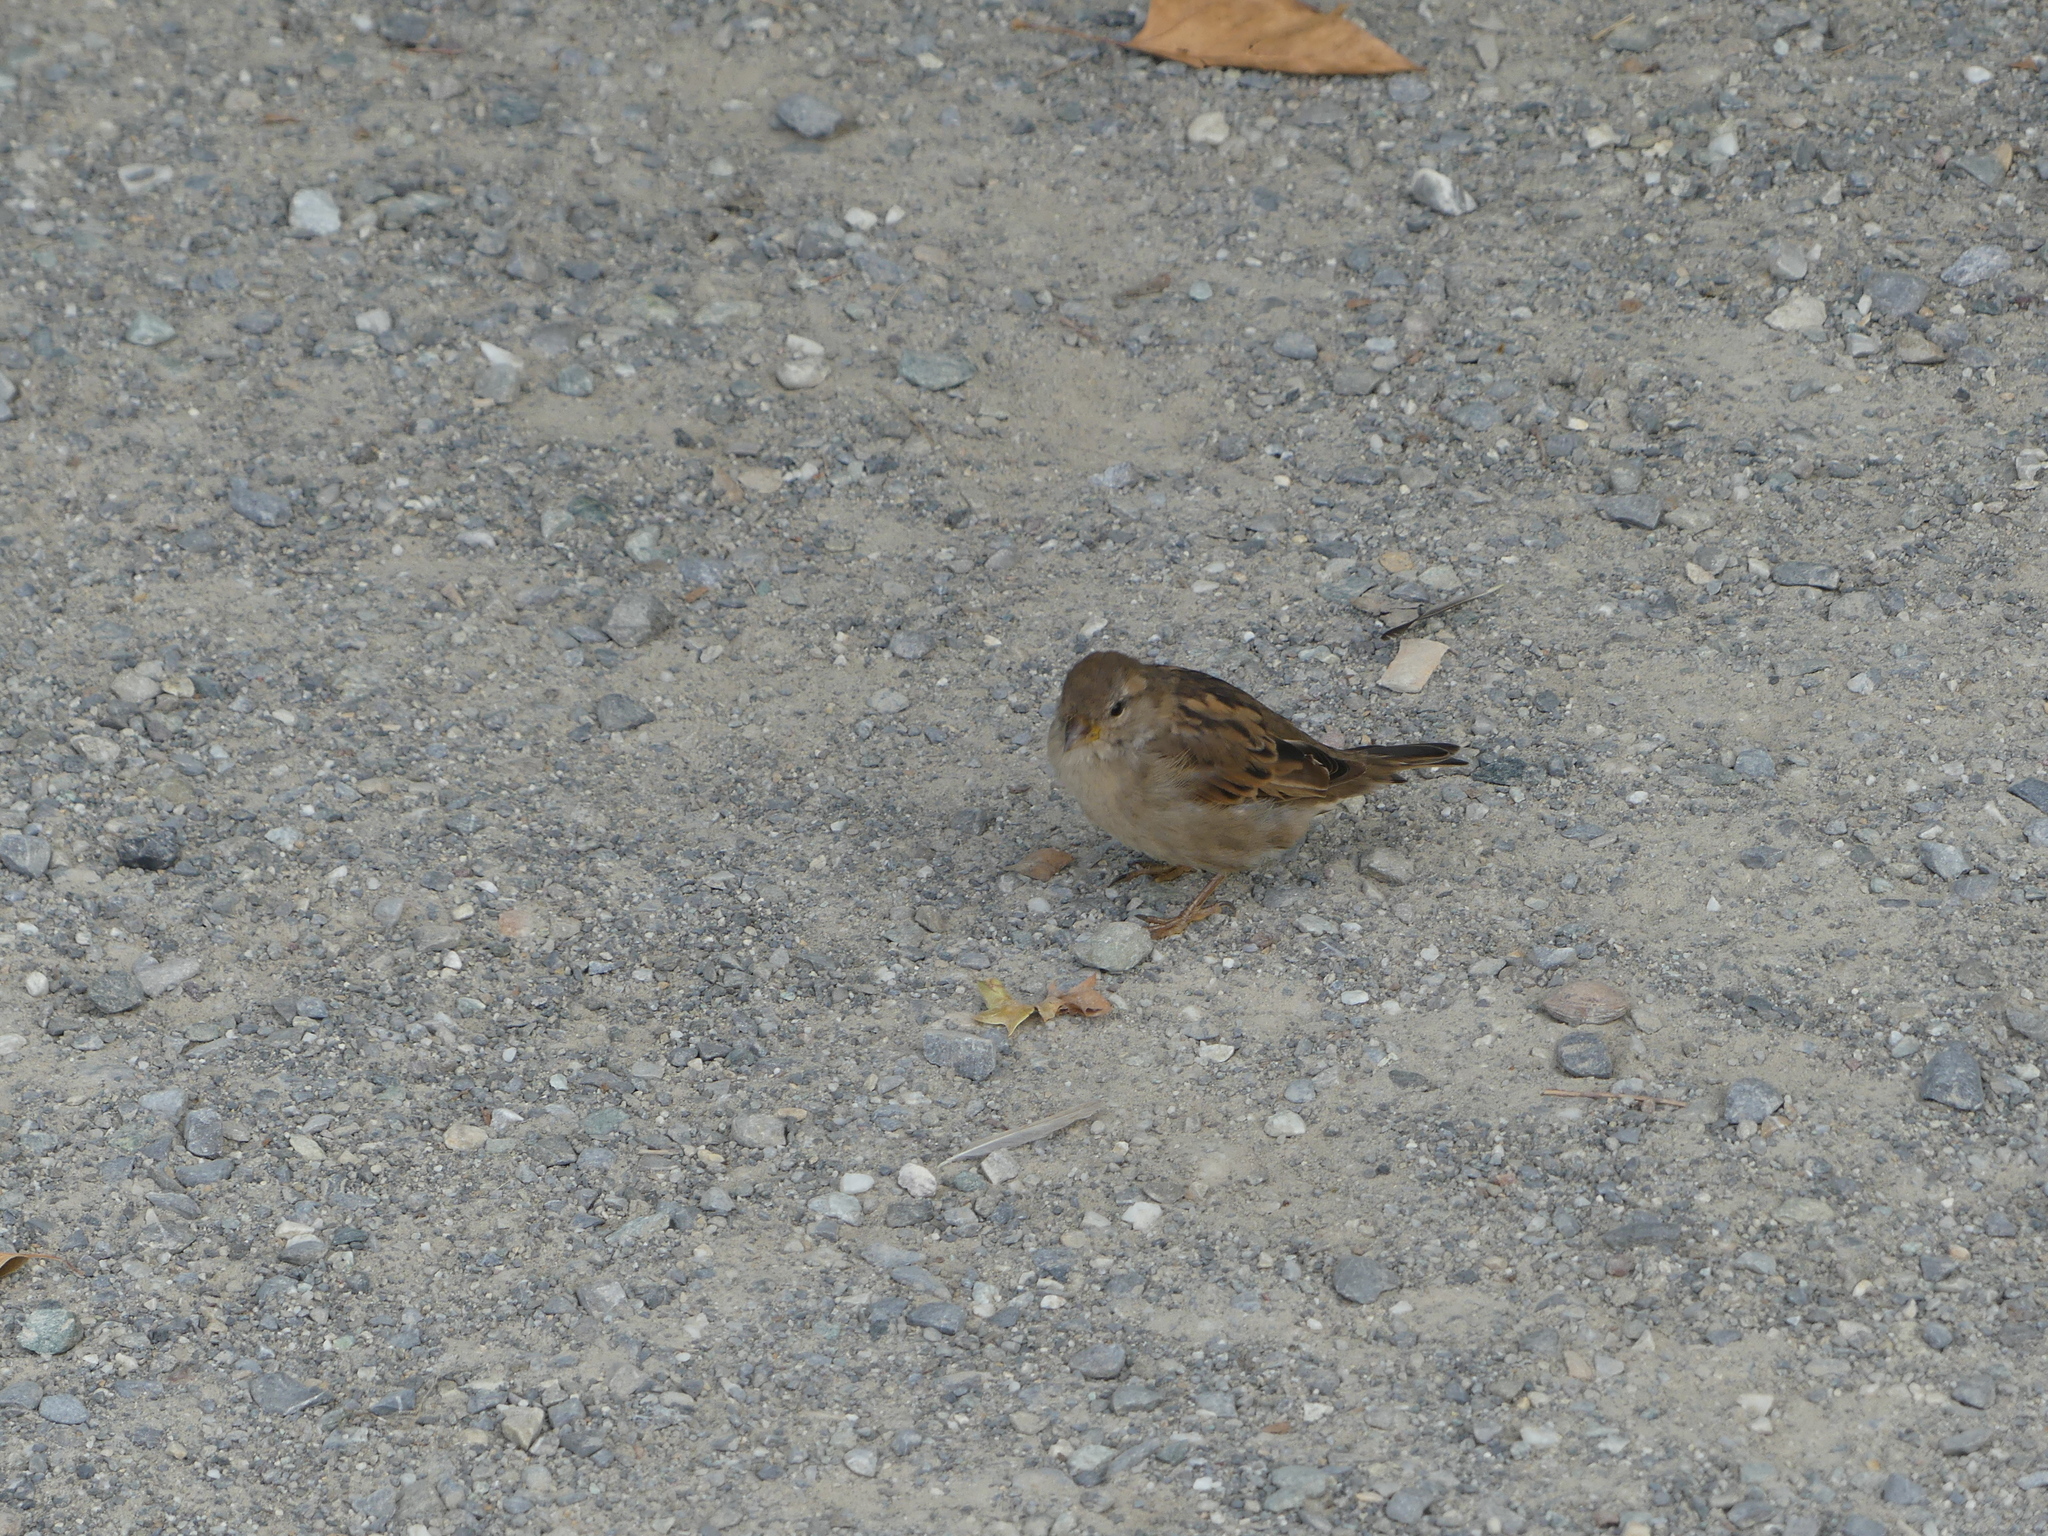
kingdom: Animalia
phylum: Chordata
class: Aves
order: Passeriformes
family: Passeridae
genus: Passer
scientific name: Passer domesticus
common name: House sparrow
